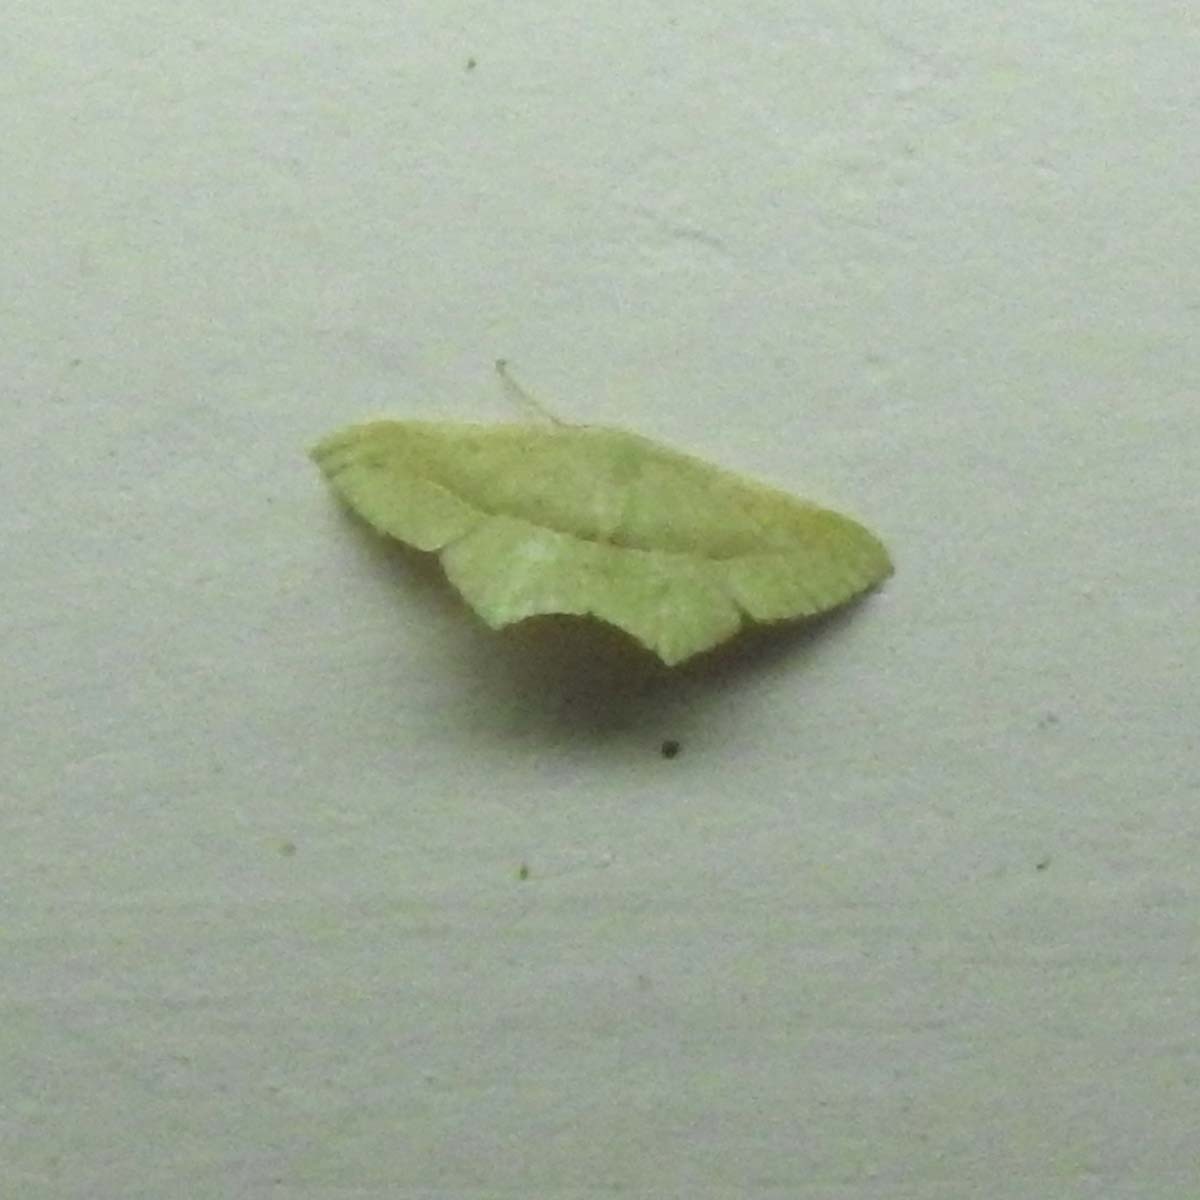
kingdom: Animalia
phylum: Arthropoda
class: Insecta
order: Lepidoptera
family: Geometridae
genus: Traminda
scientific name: Traminda mundissima
